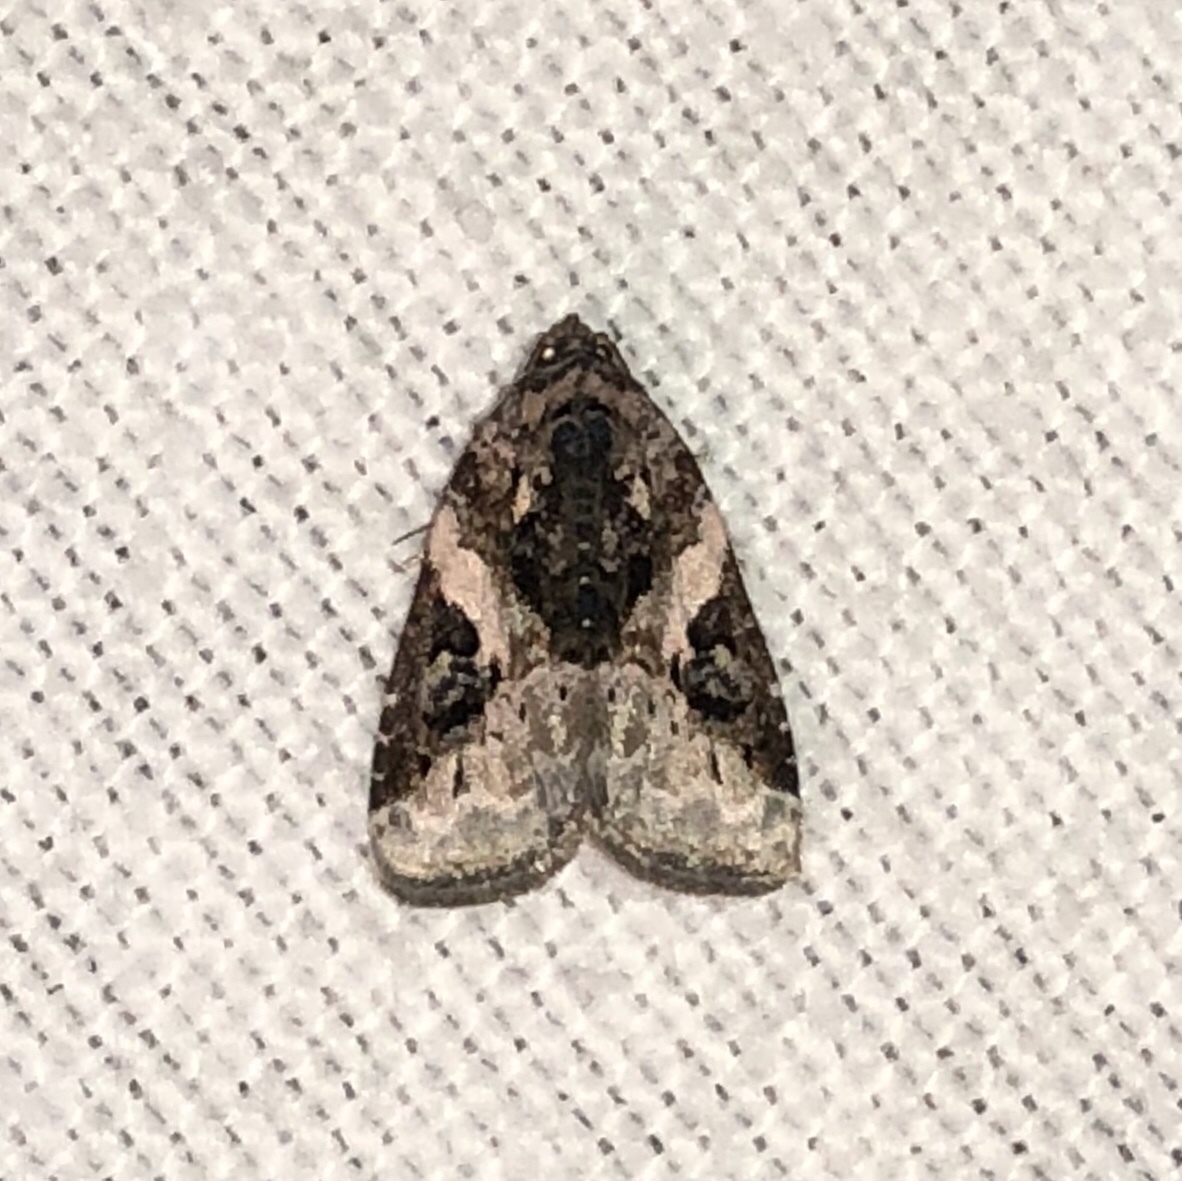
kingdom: Animalia
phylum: Arthropoda
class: Insecta
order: Lepidoptera
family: Noctuidae
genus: Pseudeustrotia
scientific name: Pseudeustrotia carneola
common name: Pink-barred lithacodia moth
